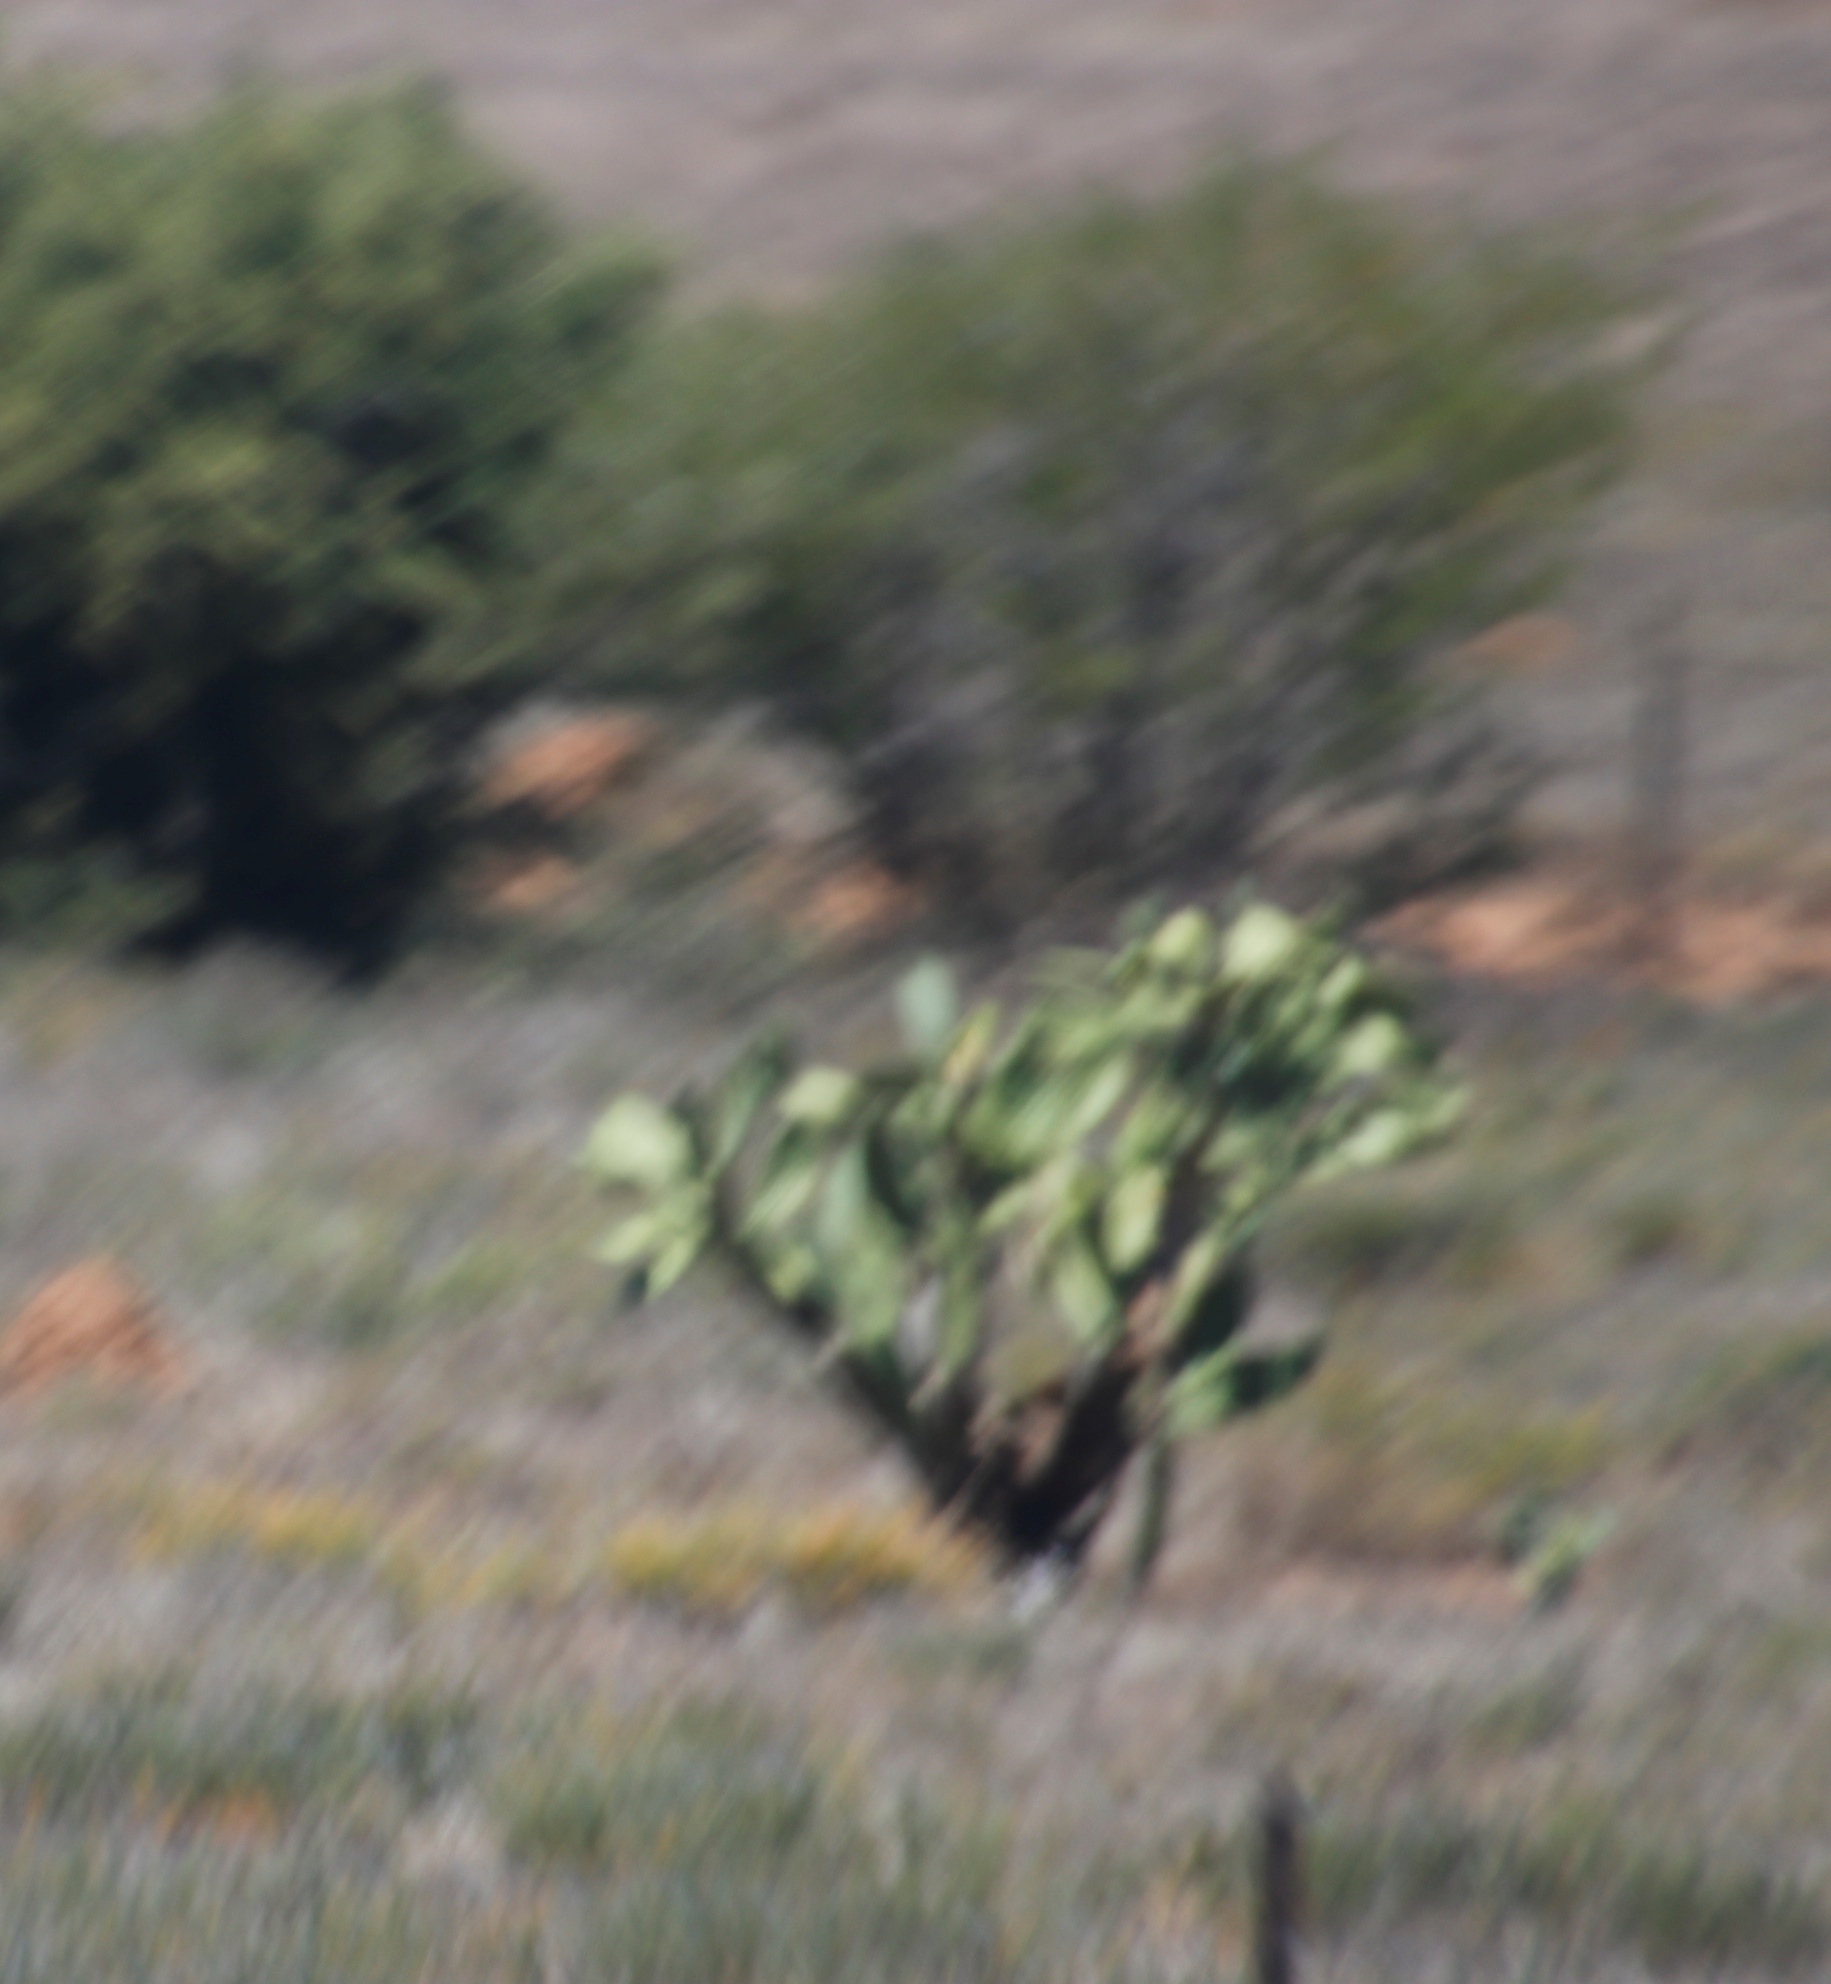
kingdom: Plantae
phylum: Tracheophyta
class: Magnoliopsida
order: Caryophyllales
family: Cactaceae
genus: Opuntia
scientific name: Opuntia ficus-indica
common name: Barbary fig
